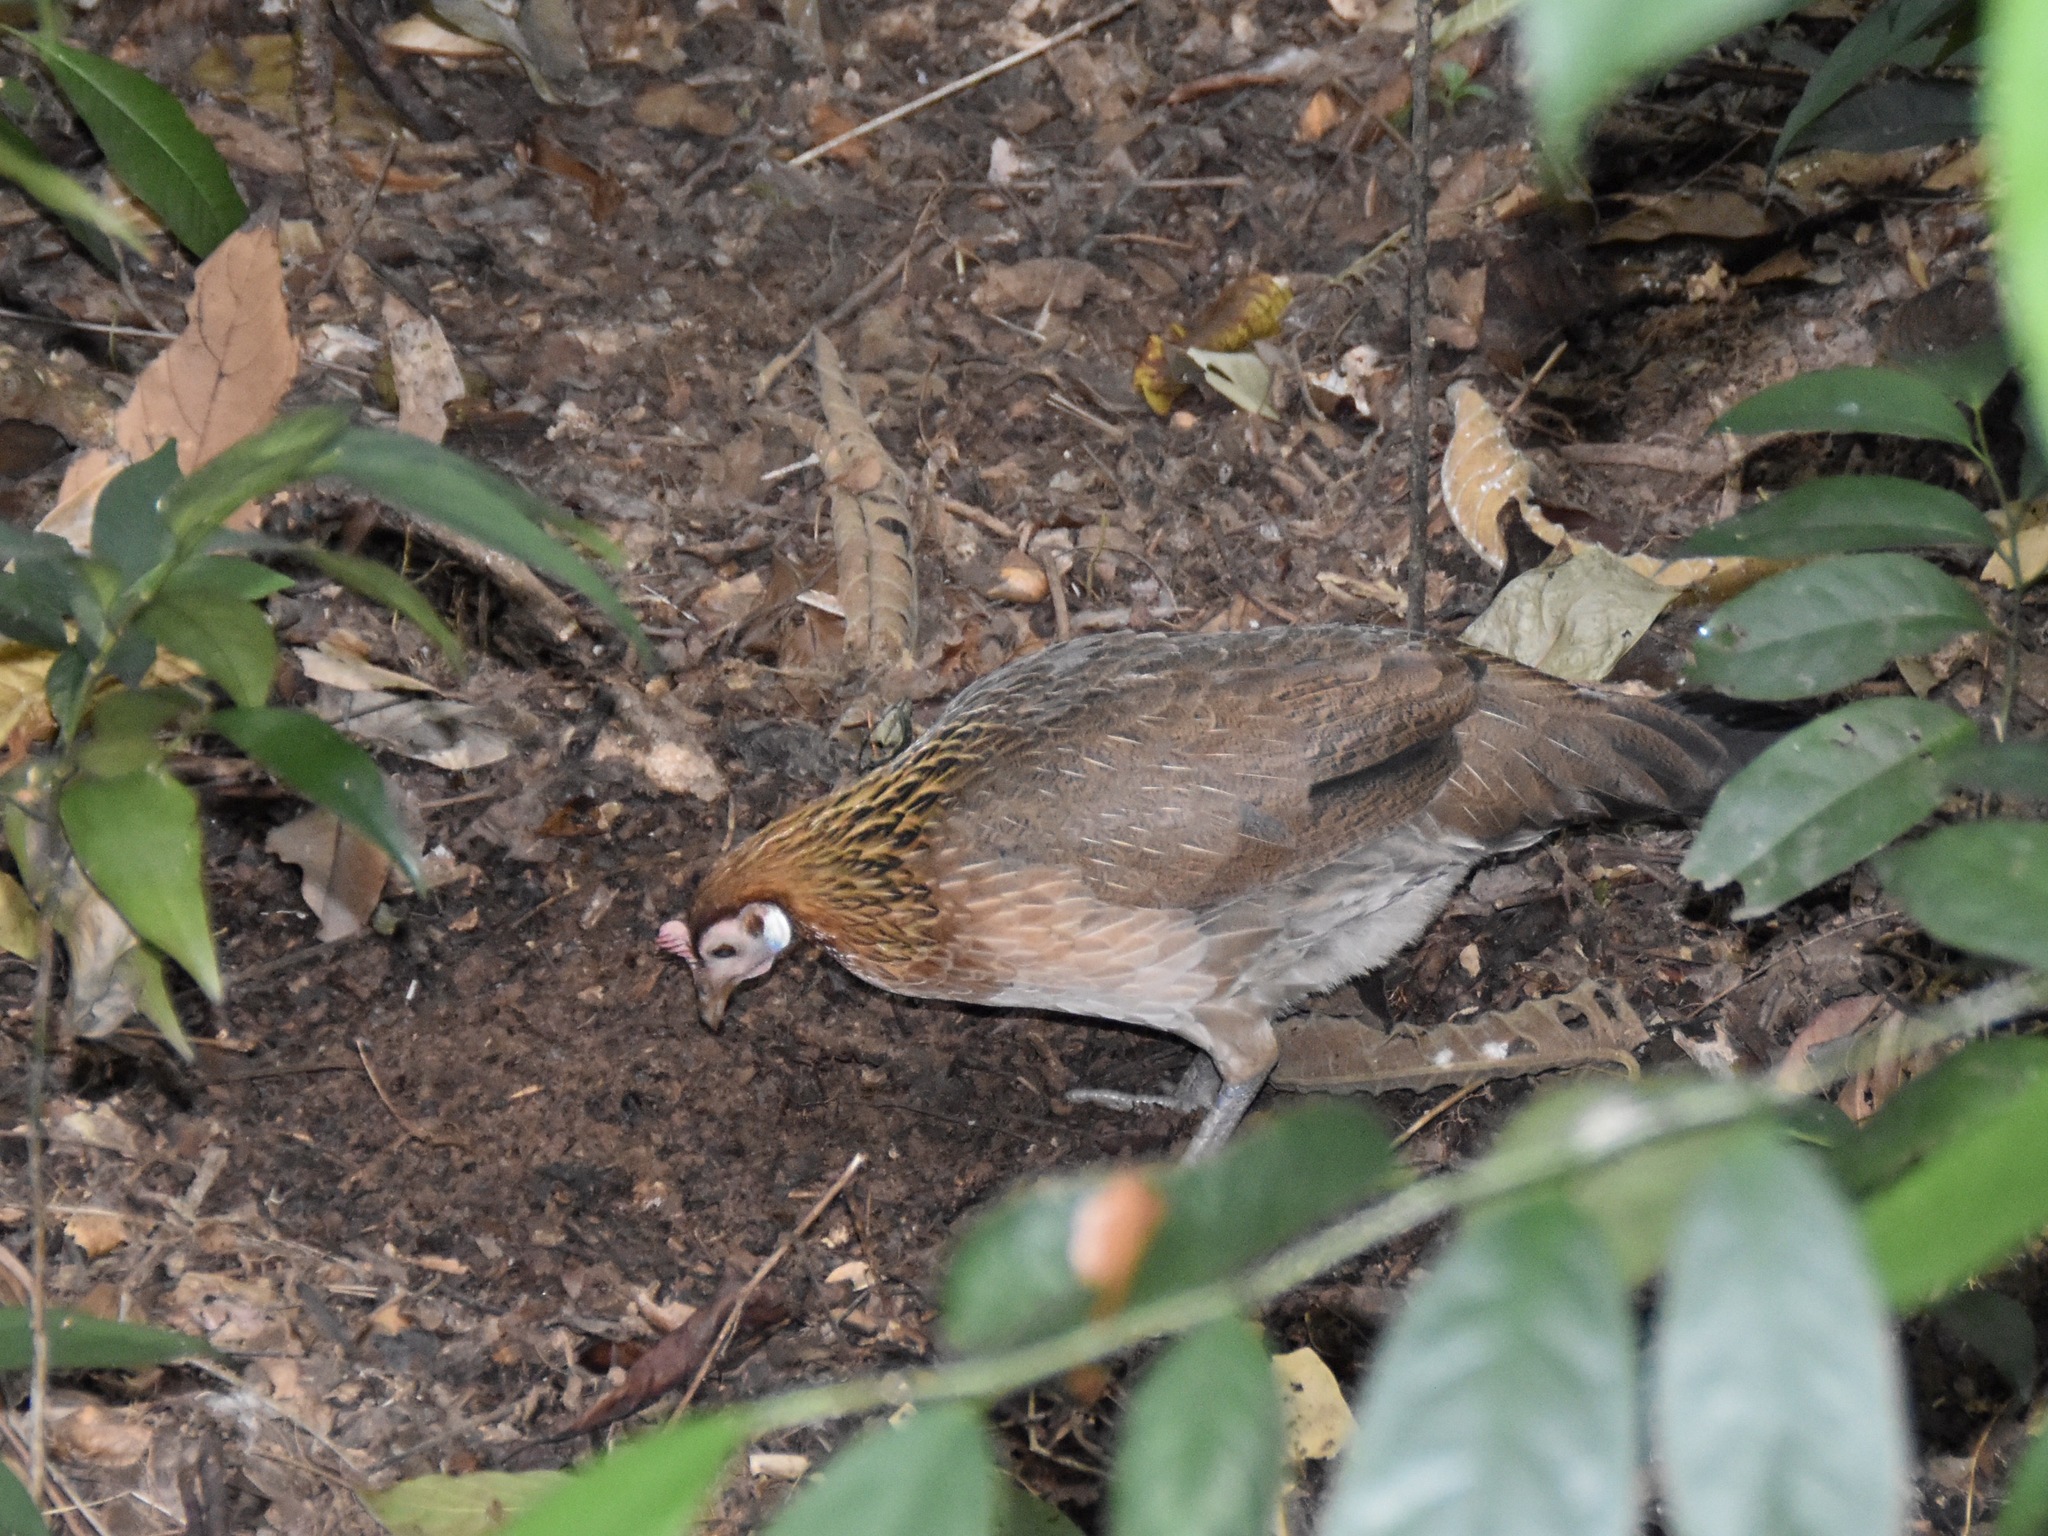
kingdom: Animalia
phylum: Chordata
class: Aves
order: Galliformes
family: Phasianidae
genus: Gallus
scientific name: Gallus gallus
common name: Red junglefowl
